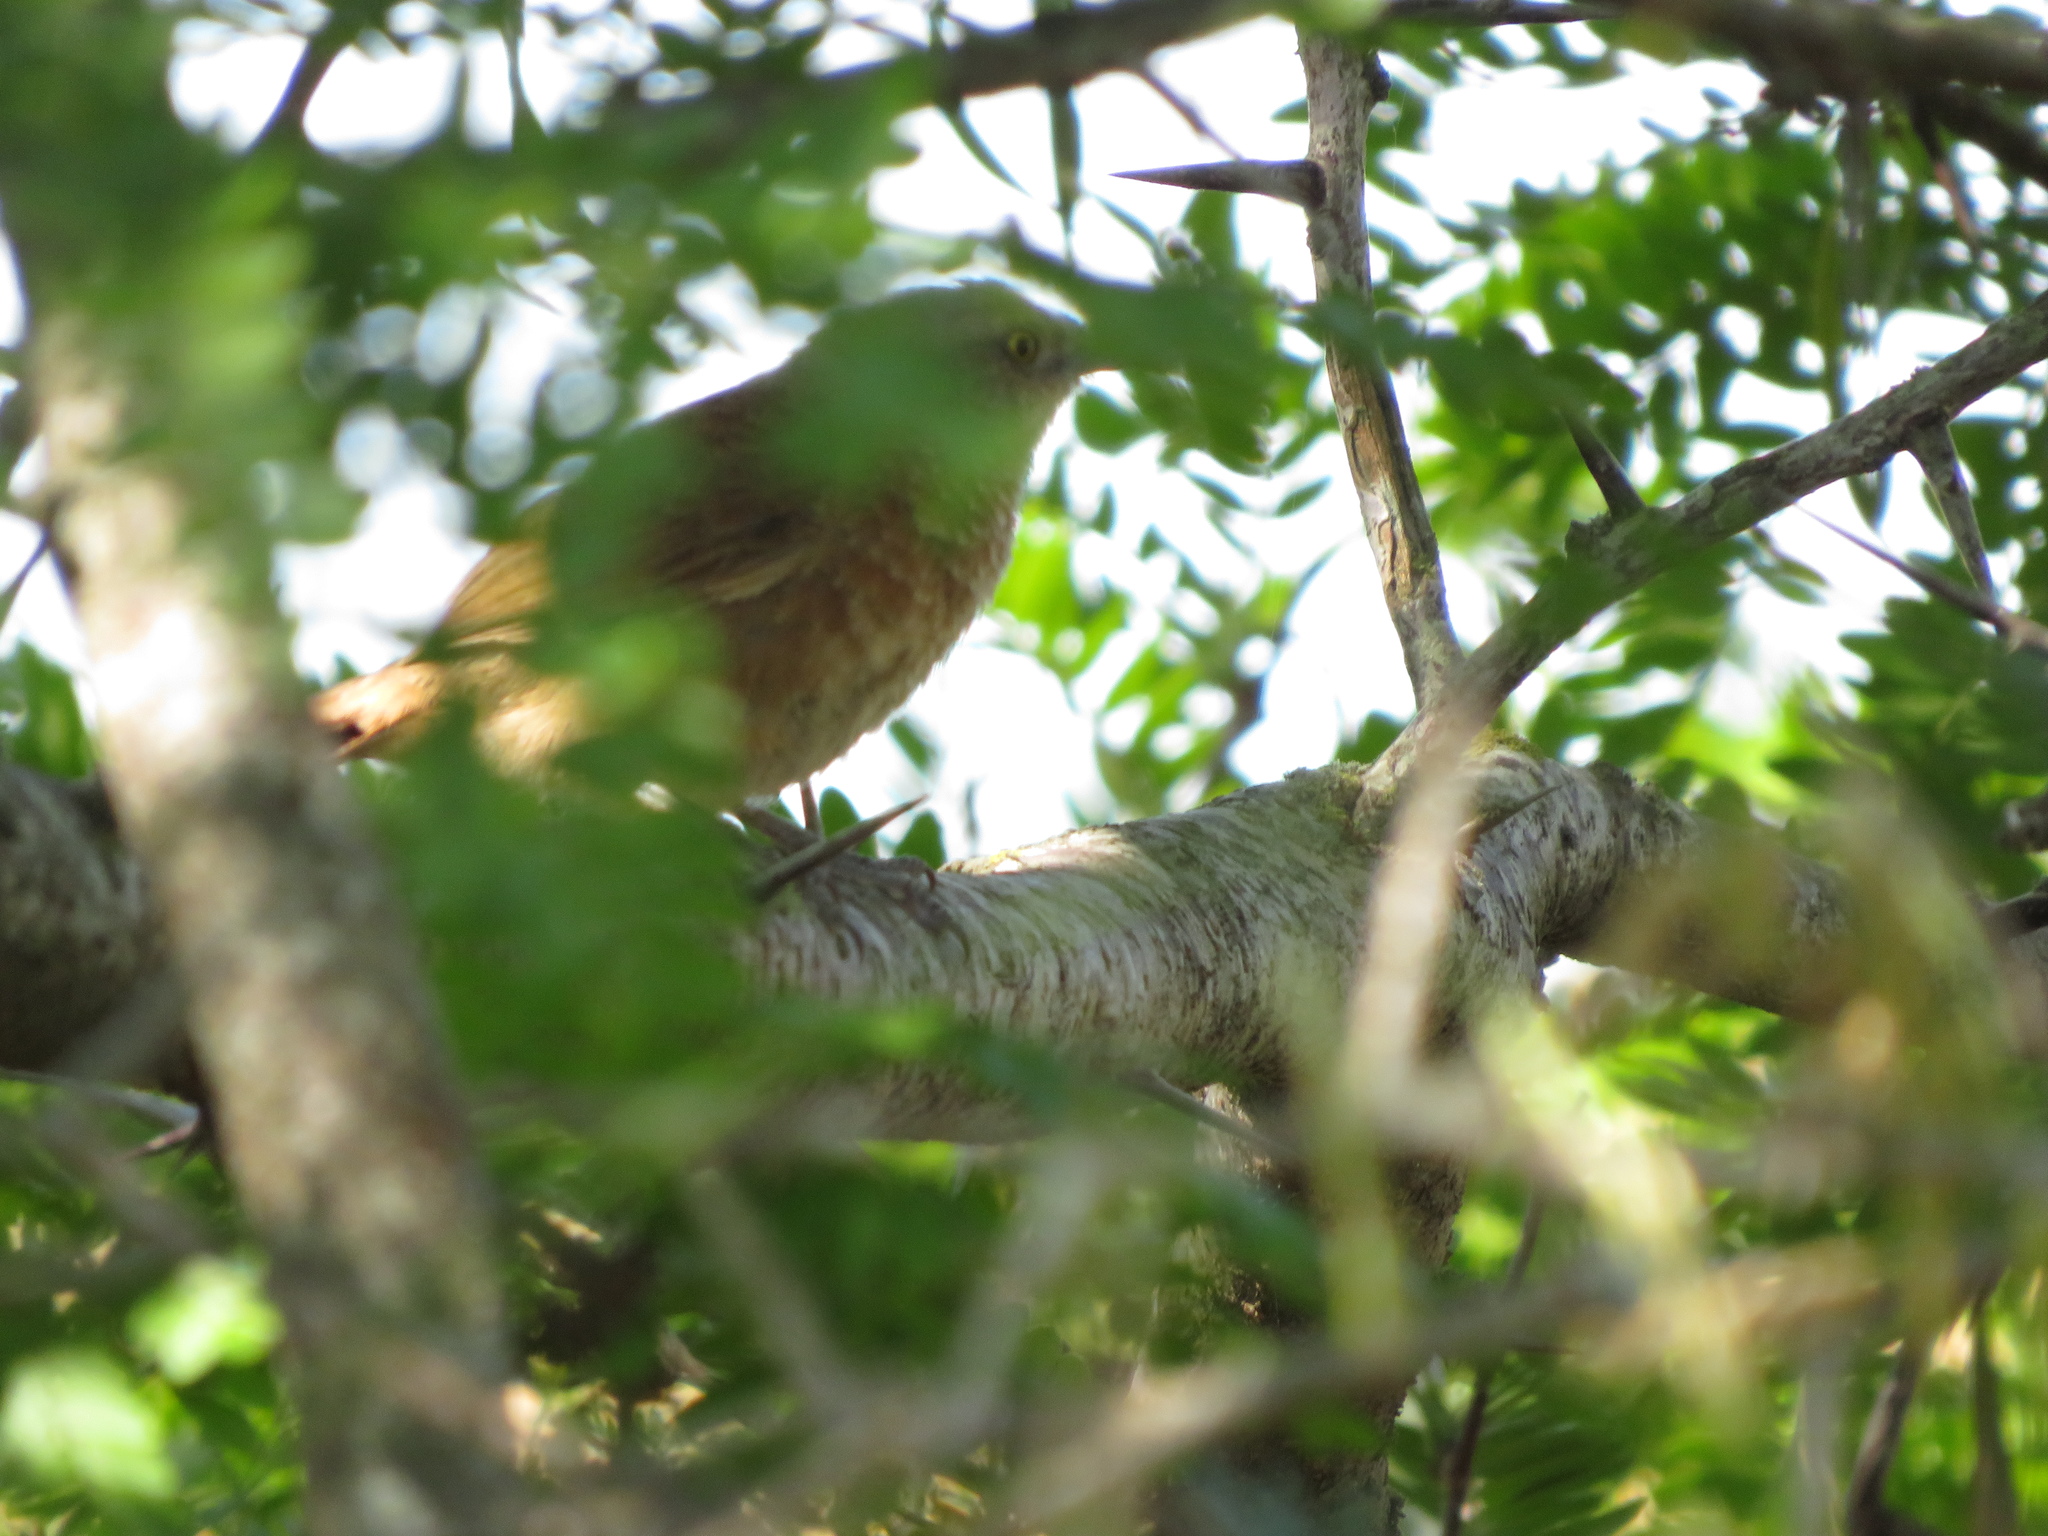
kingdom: Animalia
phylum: Chordata
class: Aves
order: Passeriformes
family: Furnariidae
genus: Phacellodomus
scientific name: Phacellodomus striaticollis
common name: Freckle-breasted thornbird
